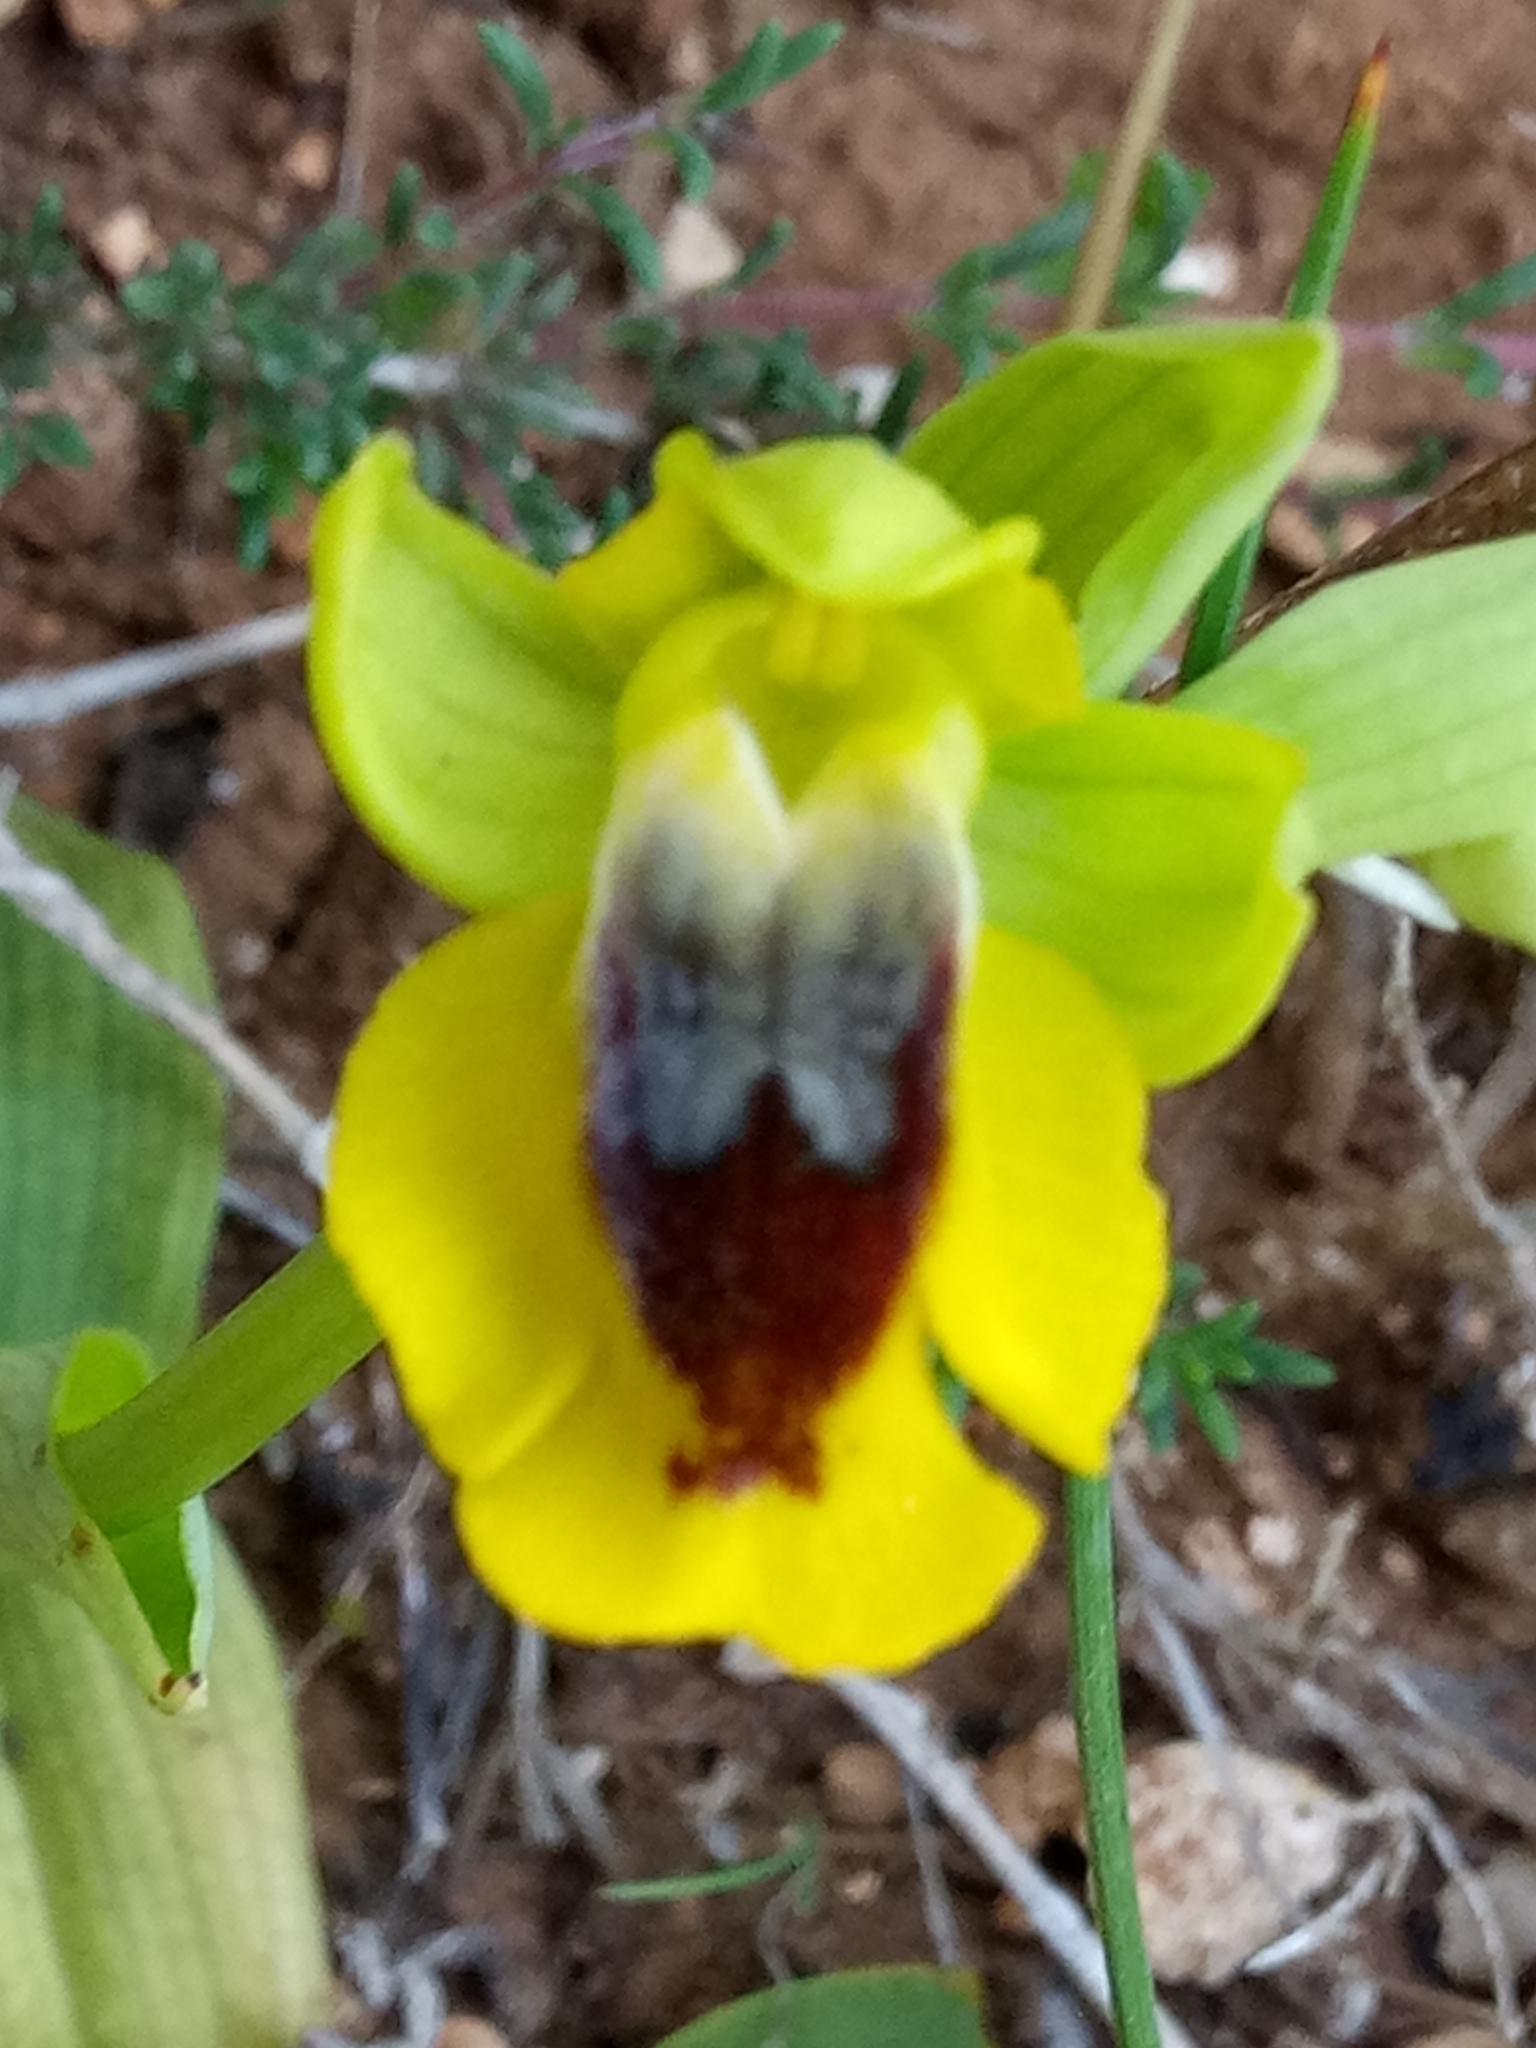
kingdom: Plantae
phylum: Tracheophyta
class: Liliopsida
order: Asparagales
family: Orchidaceae
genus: Ophrys
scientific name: Ophrys lutea
